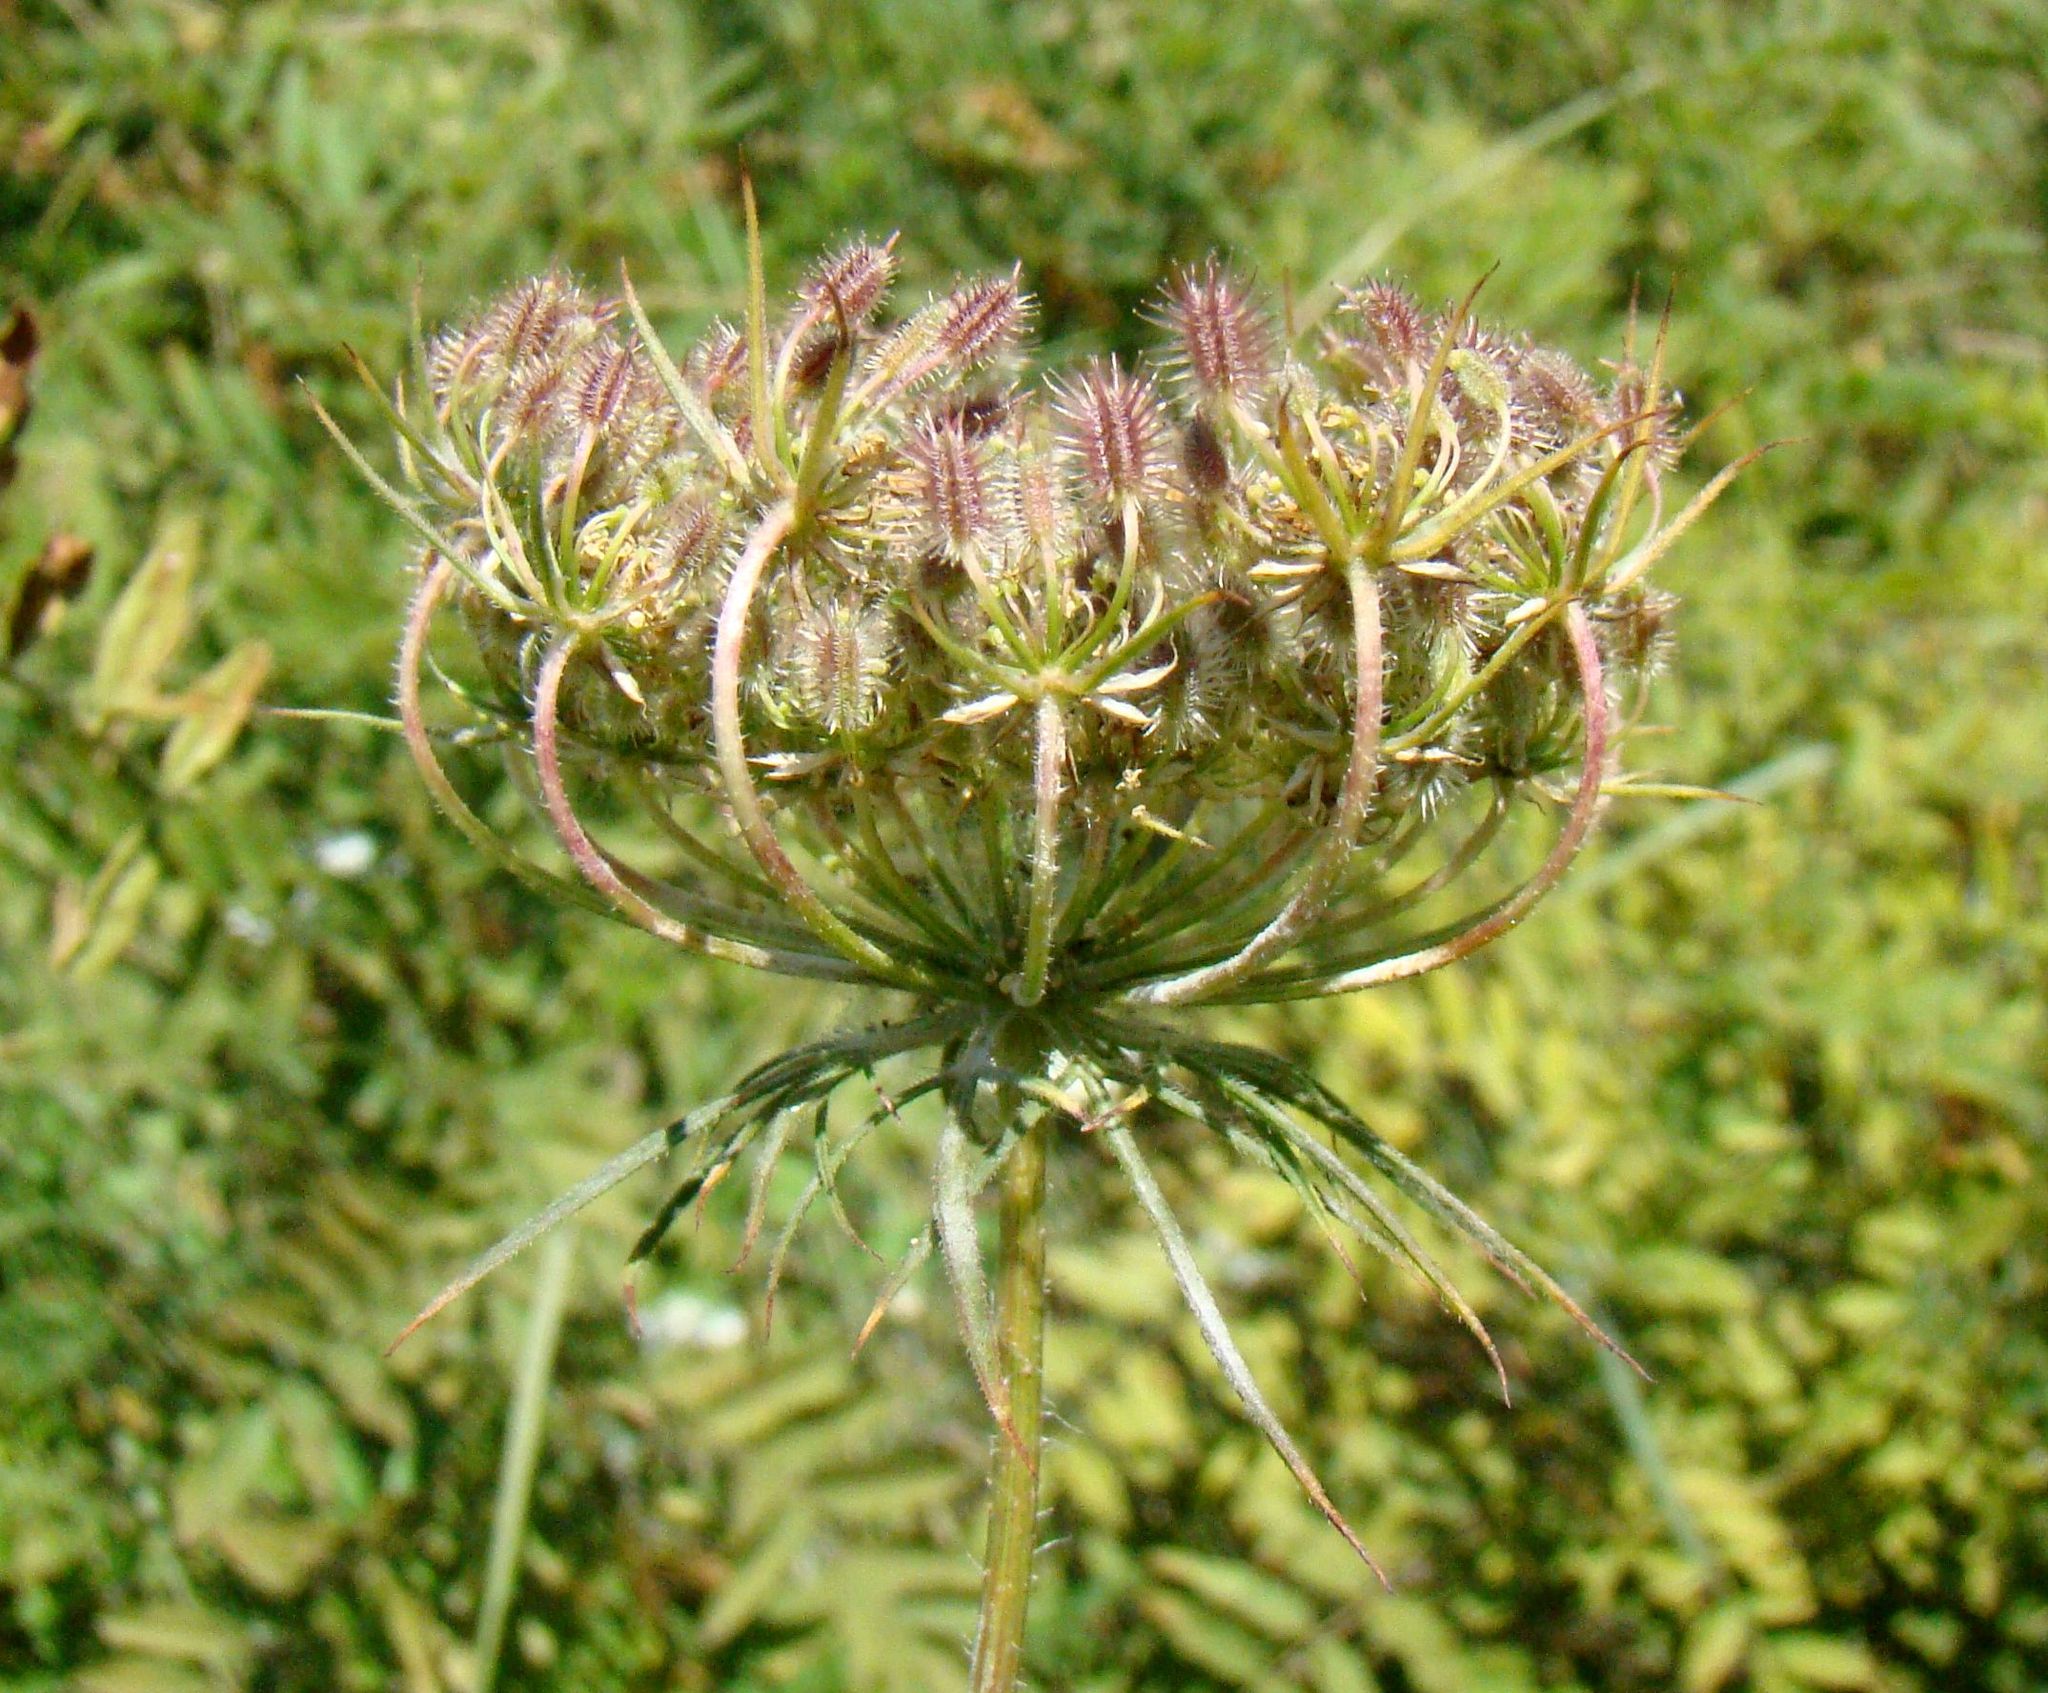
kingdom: Plantae
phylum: Tracheophyta
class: Magnoliopsida
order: Apiales
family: Apiaceae
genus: Daucus
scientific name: Daucus carota
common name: Wild carrot
